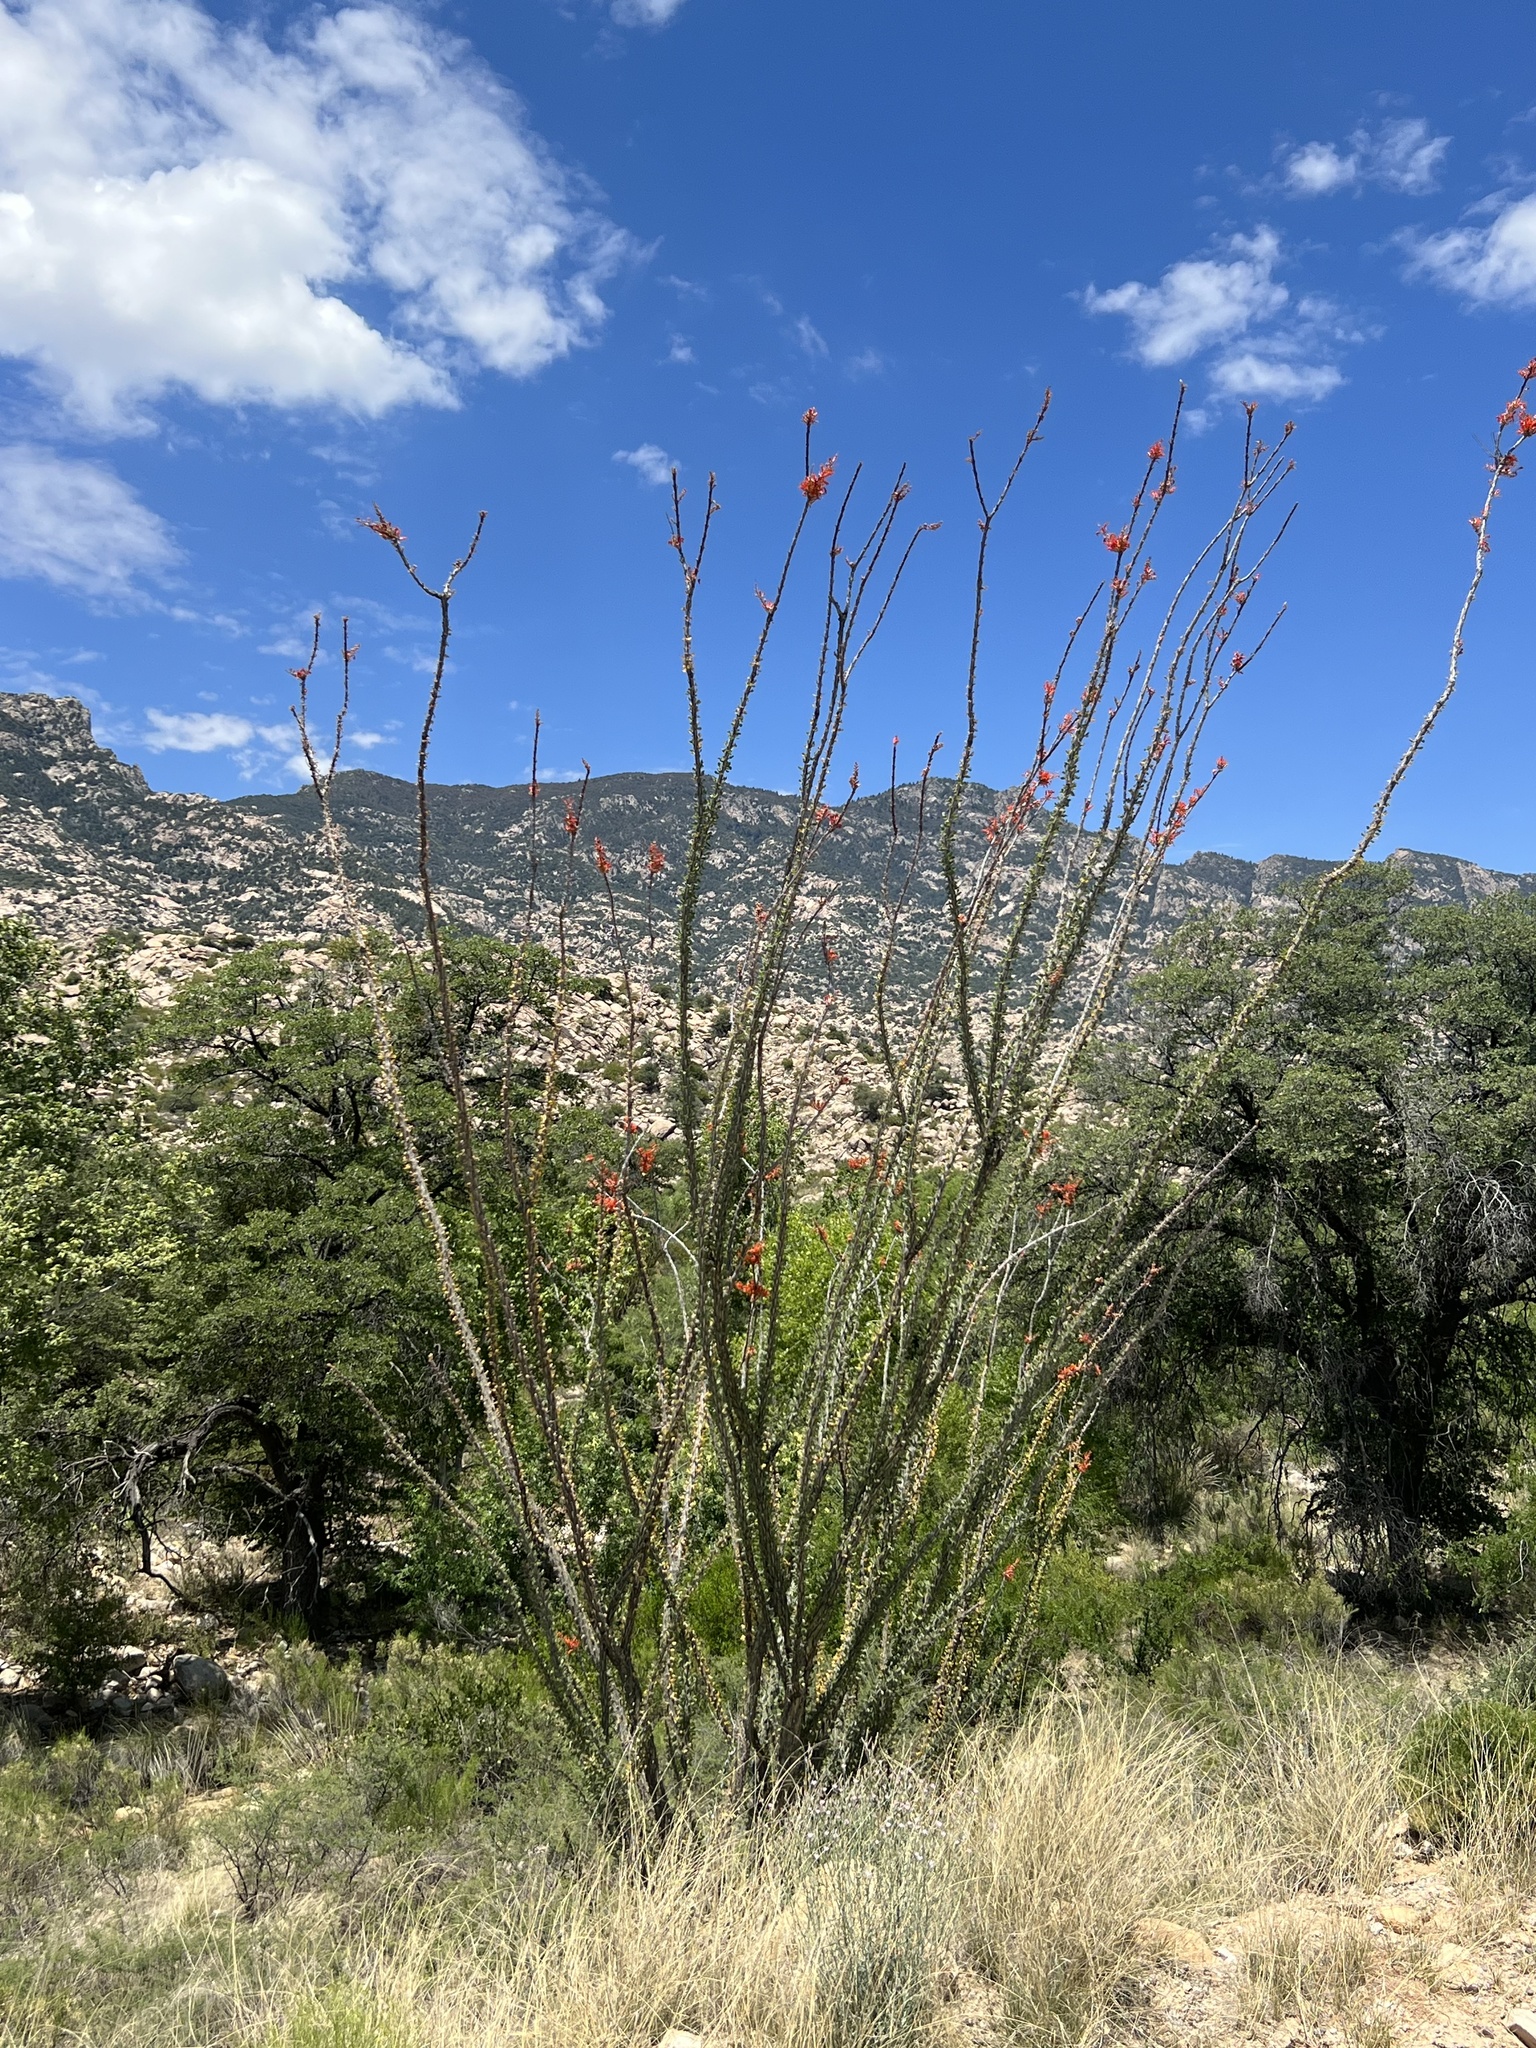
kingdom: Plantae
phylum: Tracheophyta
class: Magnoliopsida
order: Ericales
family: Fouquieriaceae
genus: Fouquieria
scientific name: Fouquieria splendens
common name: Vine-cactus
